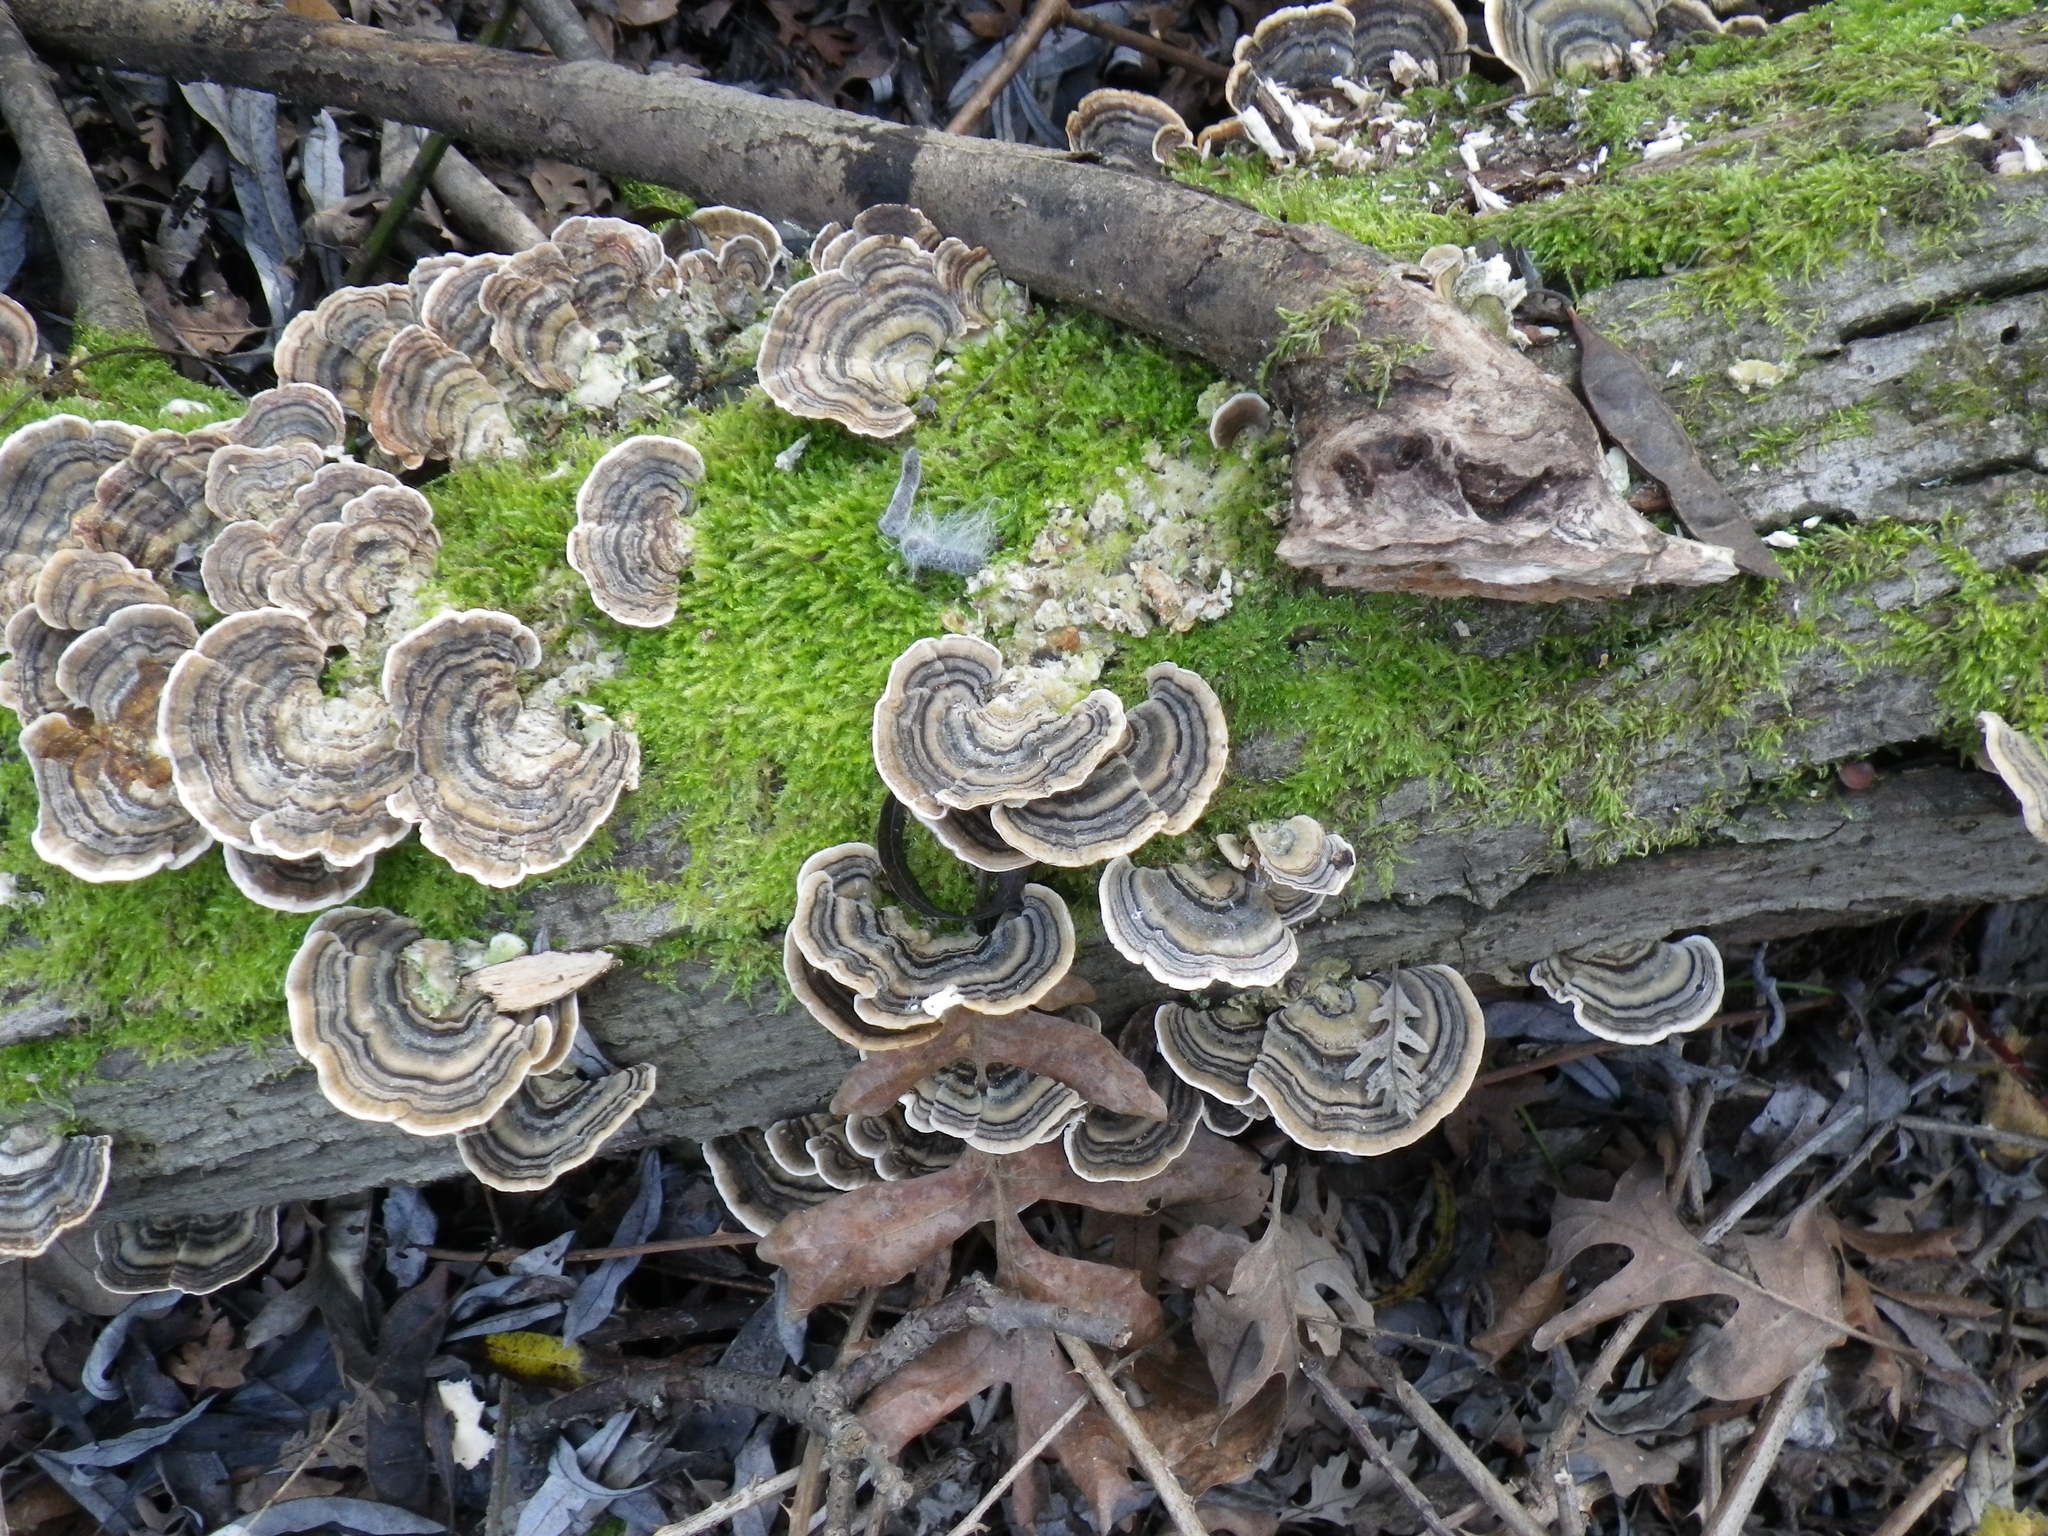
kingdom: Fungi
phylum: Basidiomycota
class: Agaricomycetes
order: Polyporales
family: Polyporaceae
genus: Trametes
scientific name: Trametes versicolor
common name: Turkeytail
